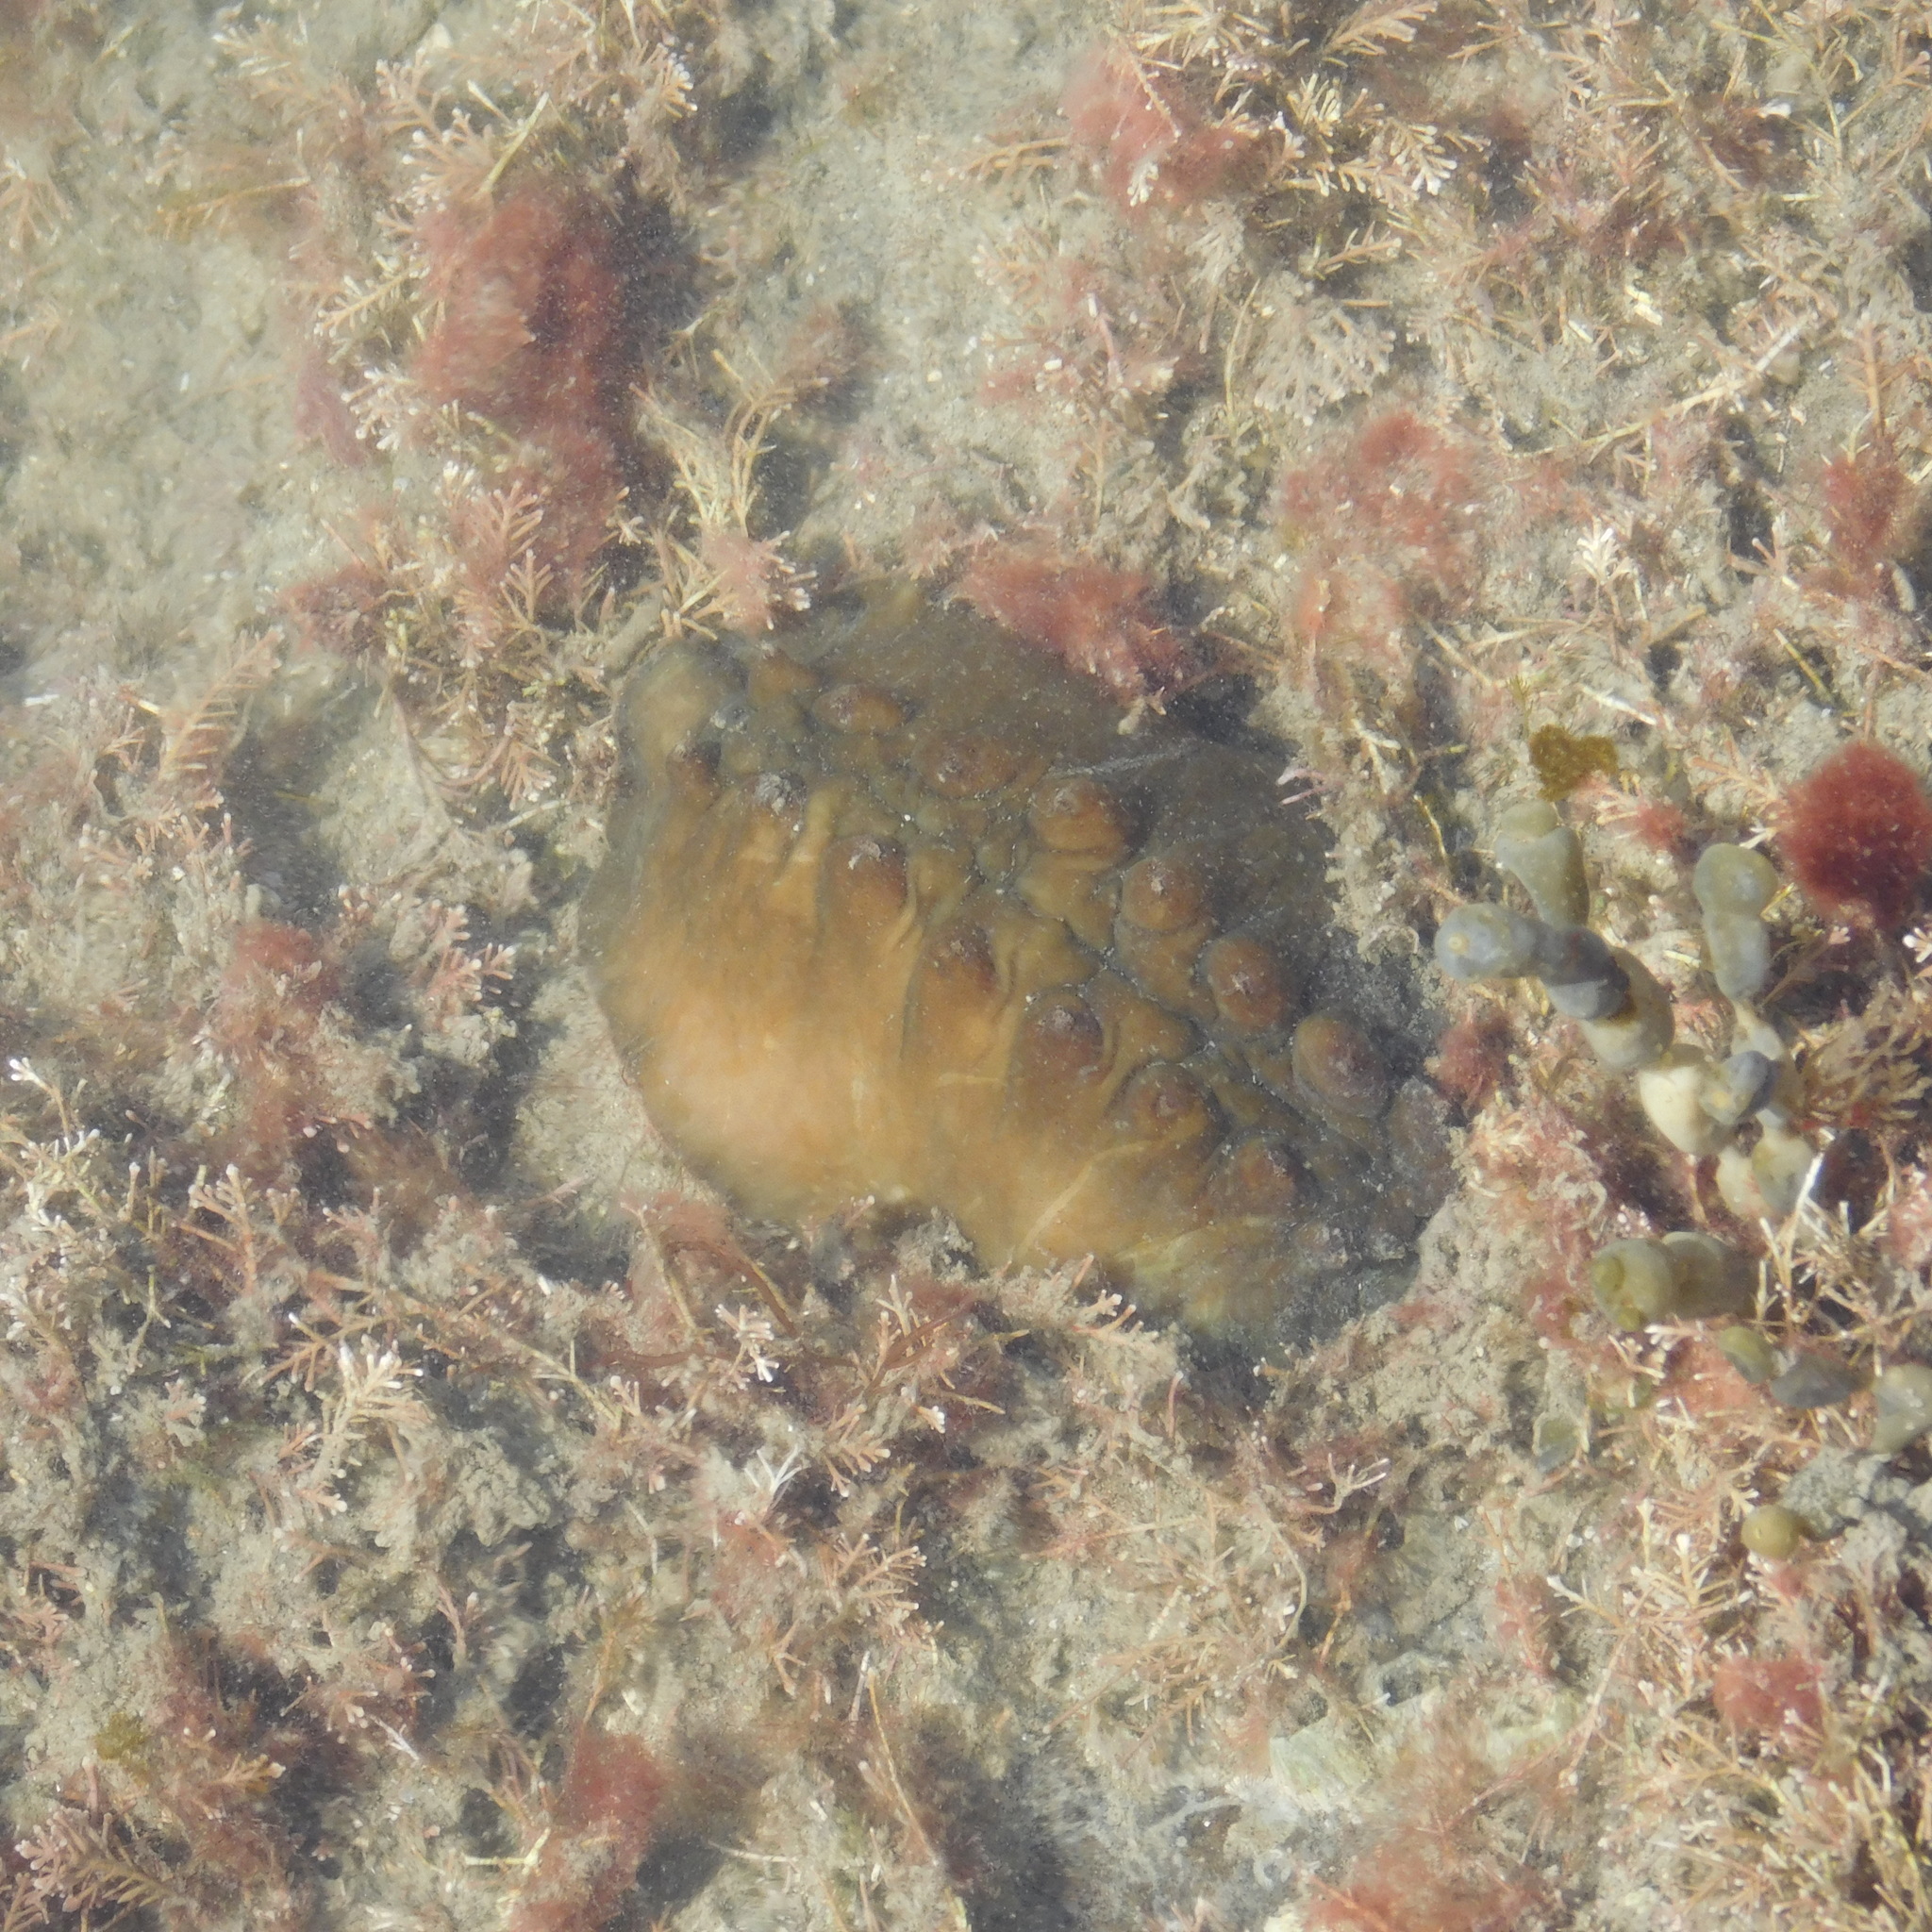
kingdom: Animalia
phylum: Mollusca
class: Polyplacophora
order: Chitonida
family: Acanthochitonidae
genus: Cryptoconchus
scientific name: Cryptoconchus porosus
